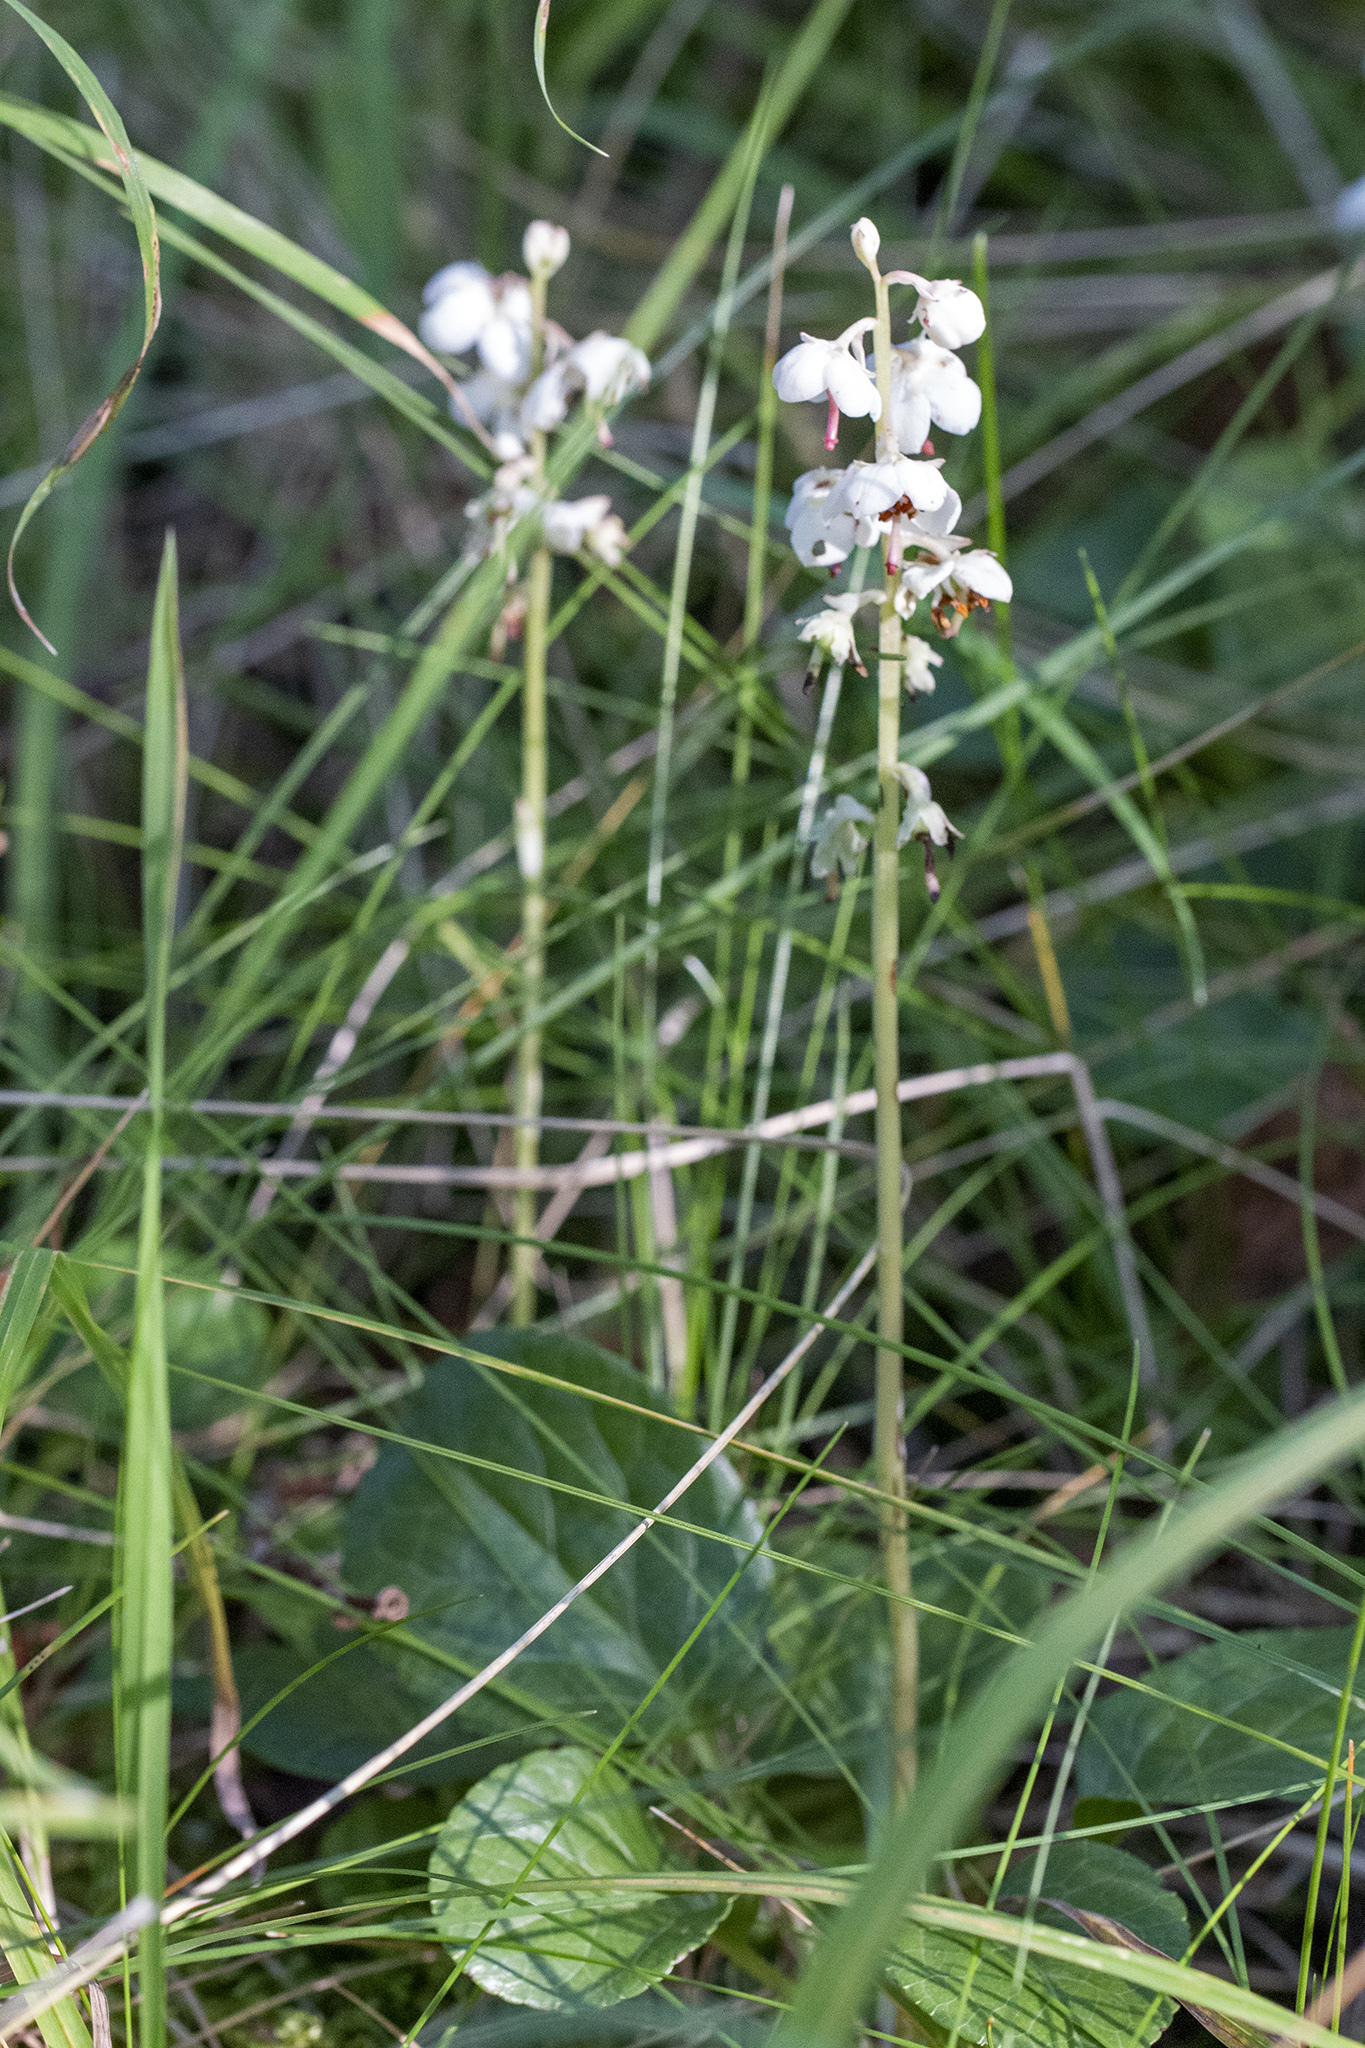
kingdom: Plantae
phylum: Tracheophyta
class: Magnoliopsida
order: Ericales
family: Ericaceae
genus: Pyrola
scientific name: Pyrola rotundifolia
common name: Round-leaved wintergreen
